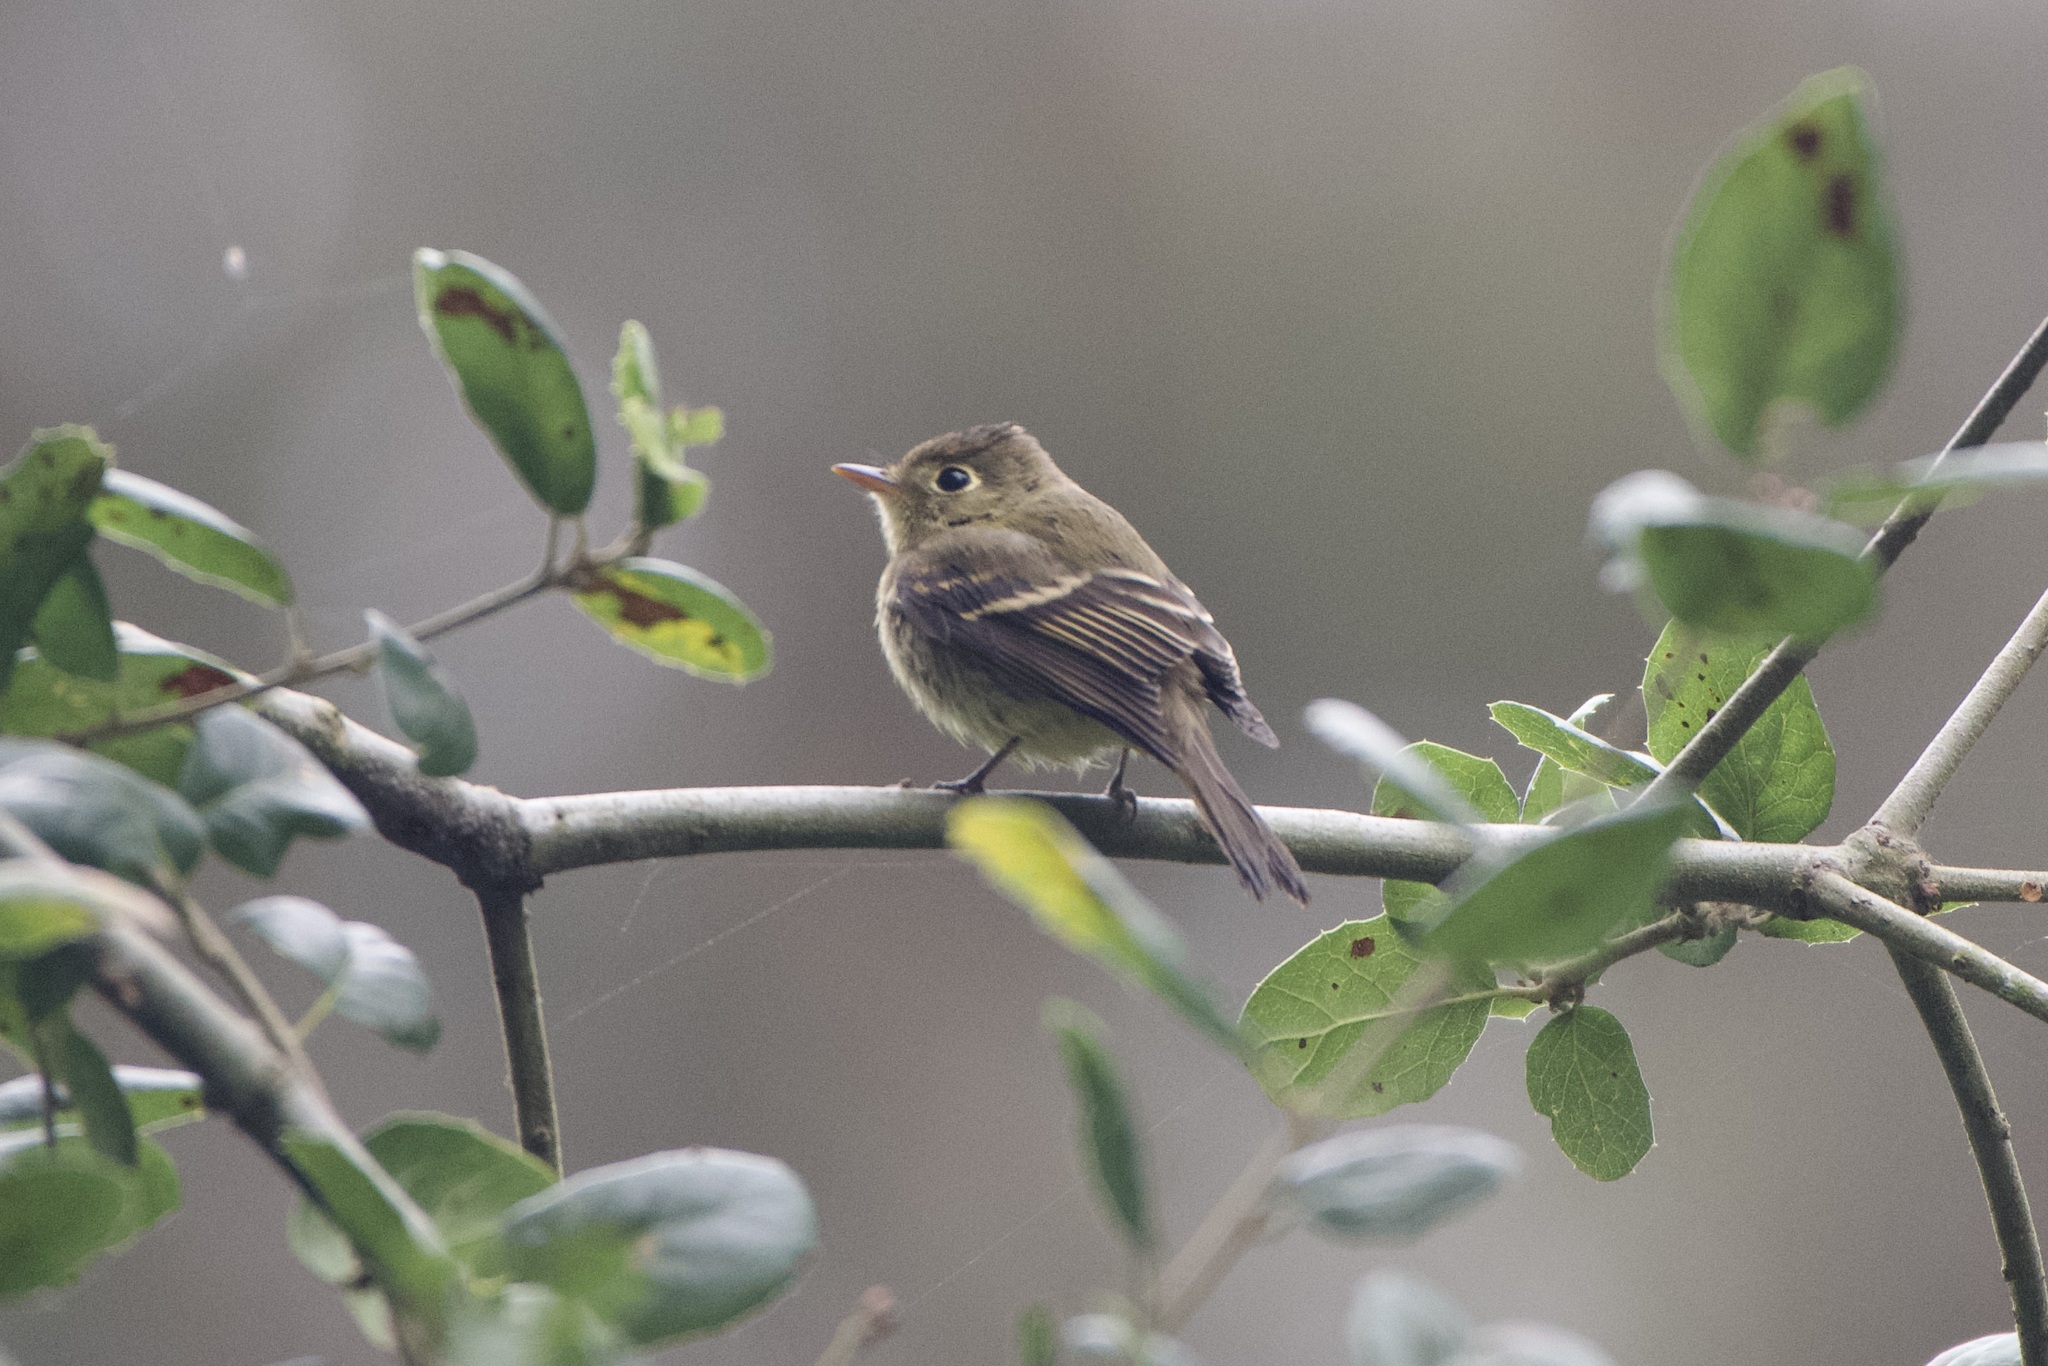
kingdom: Animalia
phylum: Chordata
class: Aves
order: Passeriformes
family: Tyrannidae
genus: Empidonax
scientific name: Empidonax difficilis
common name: Pacific-slope flycatcher
